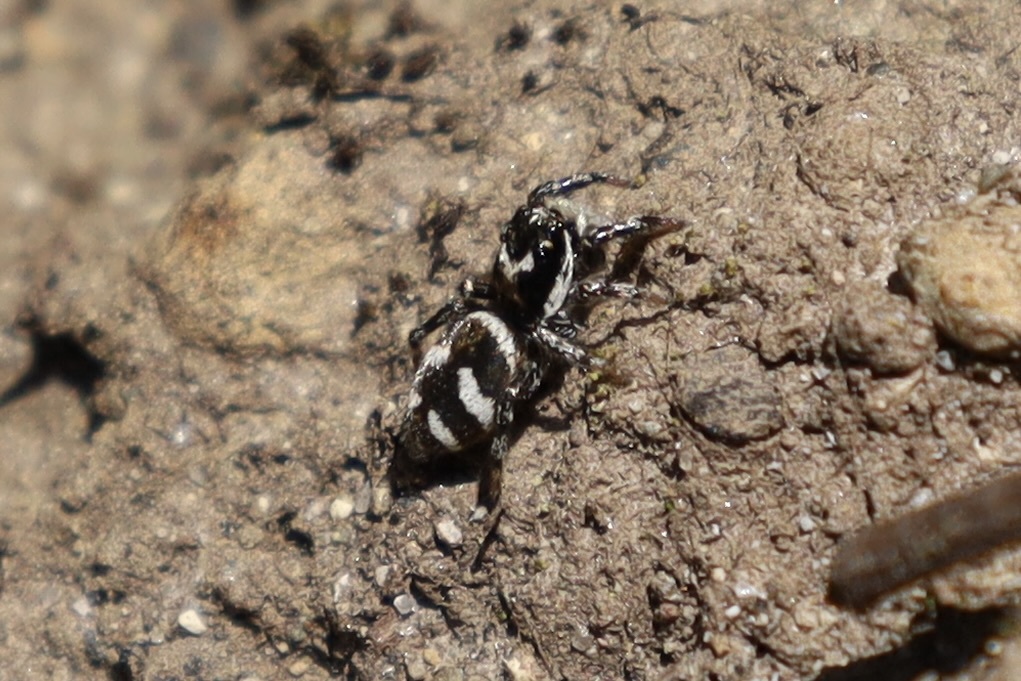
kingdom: Animalia
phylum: Arthropoda
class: Arachnida
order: Araneae
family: Salticidae
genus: Salticus
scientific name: Salticus scenicus
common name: Zebra jumper
